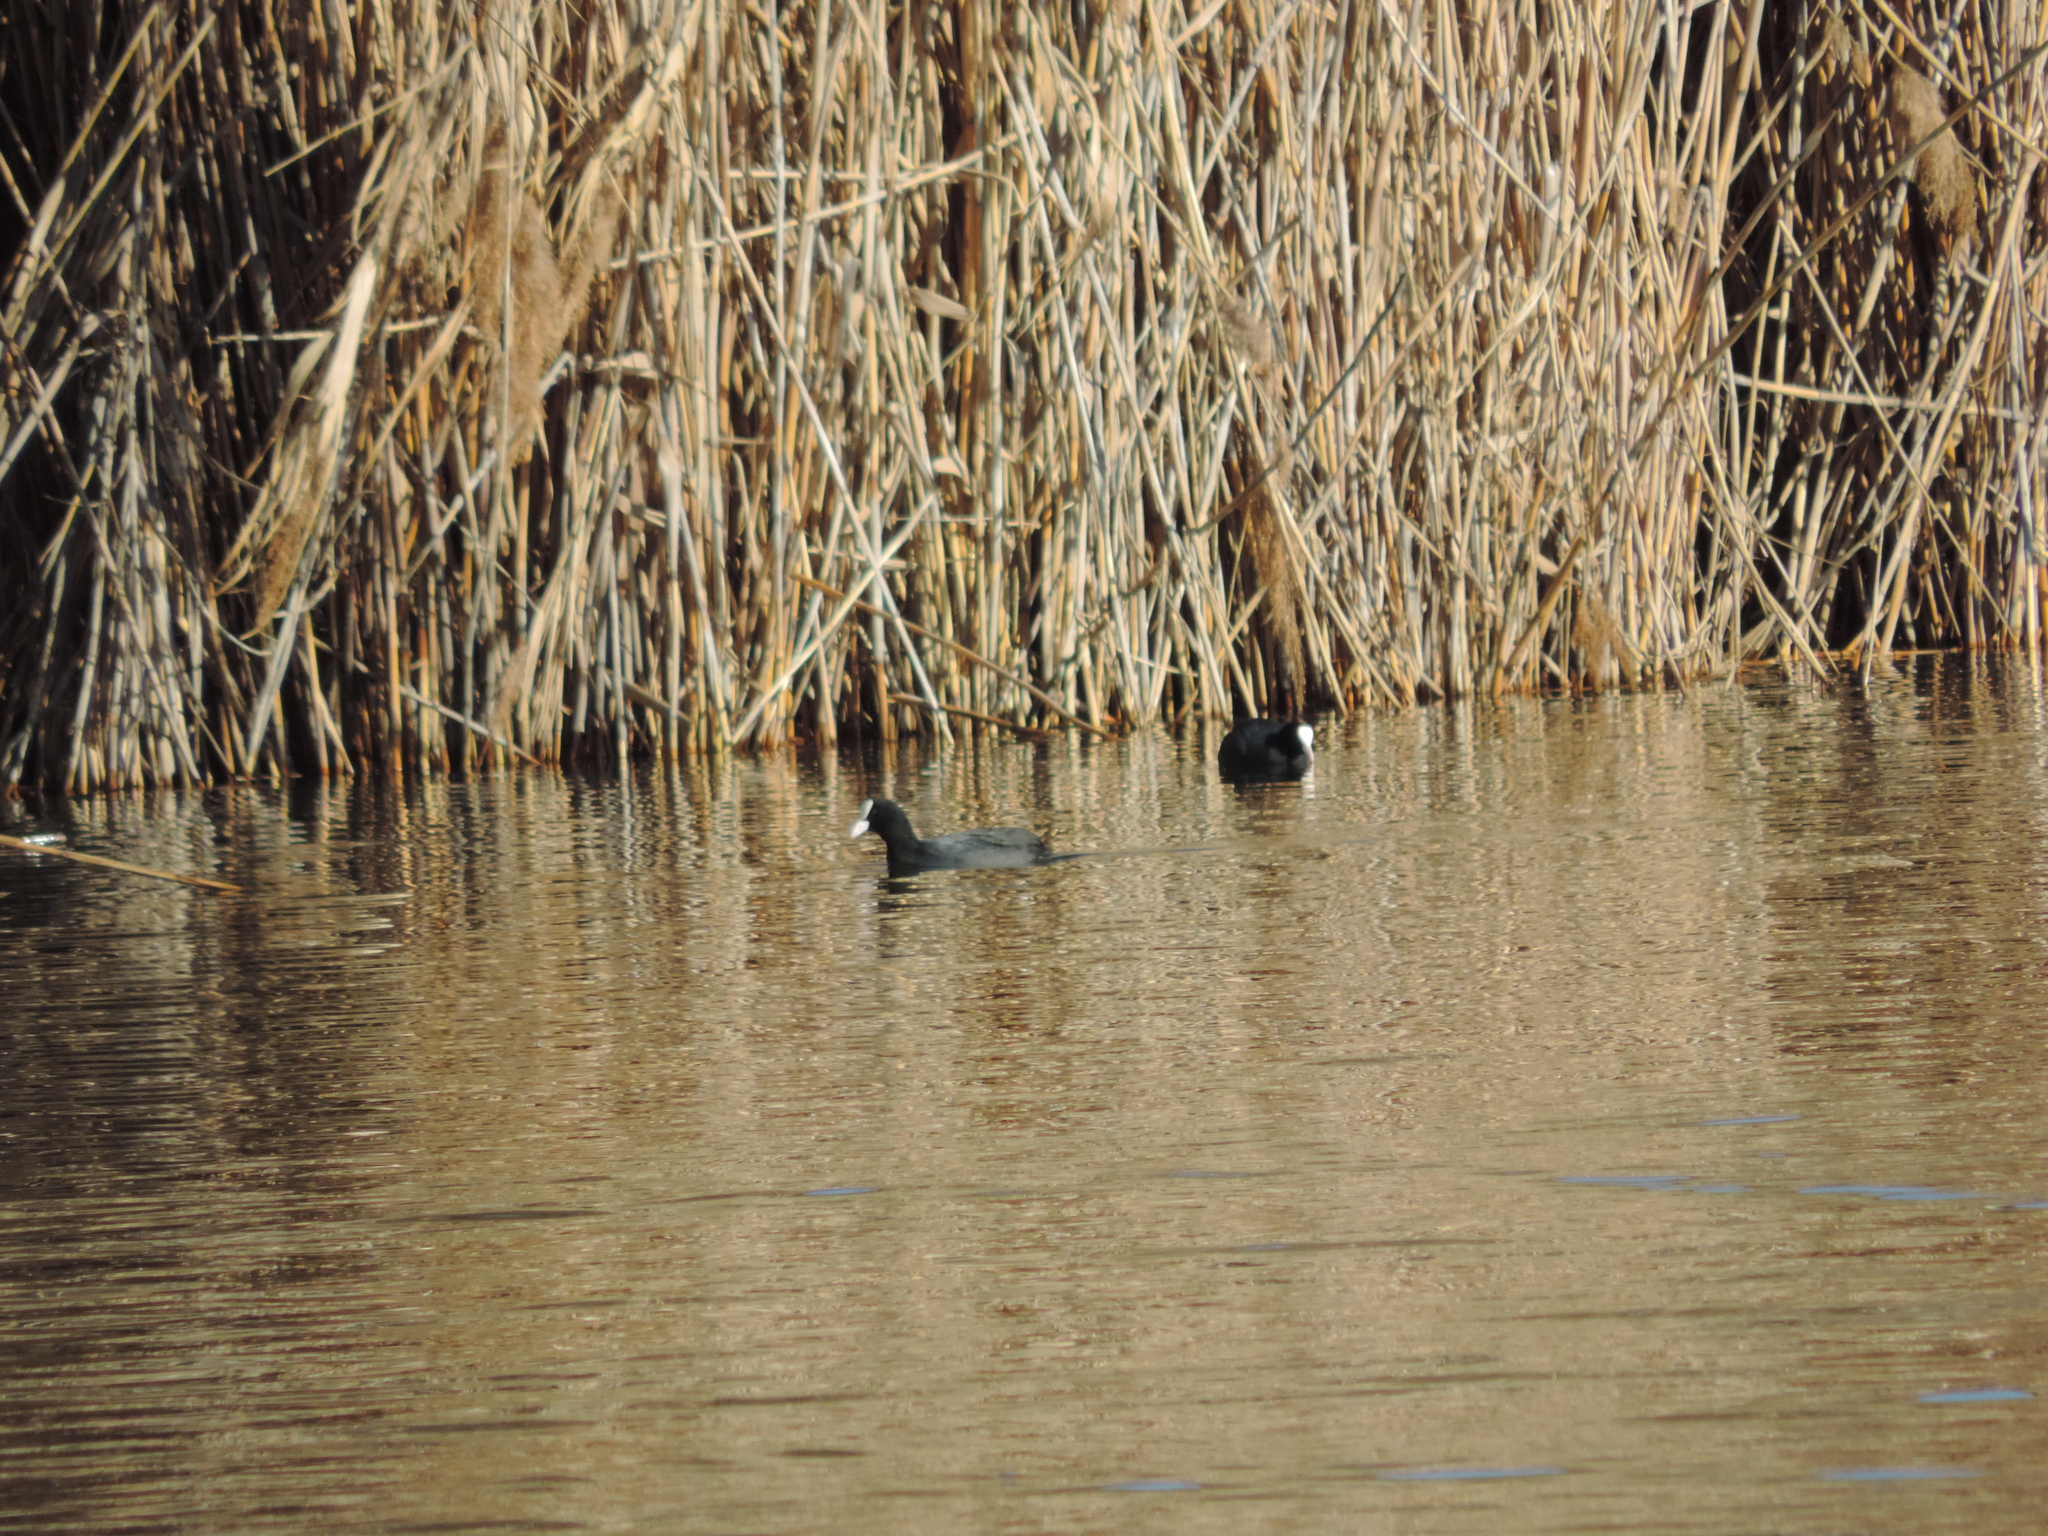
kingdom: Animalia
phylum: Chordata
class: Aves
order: Gruiformes
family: Rallidae
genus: Fulica
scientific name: Fulica atra
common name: Eurasian coot
